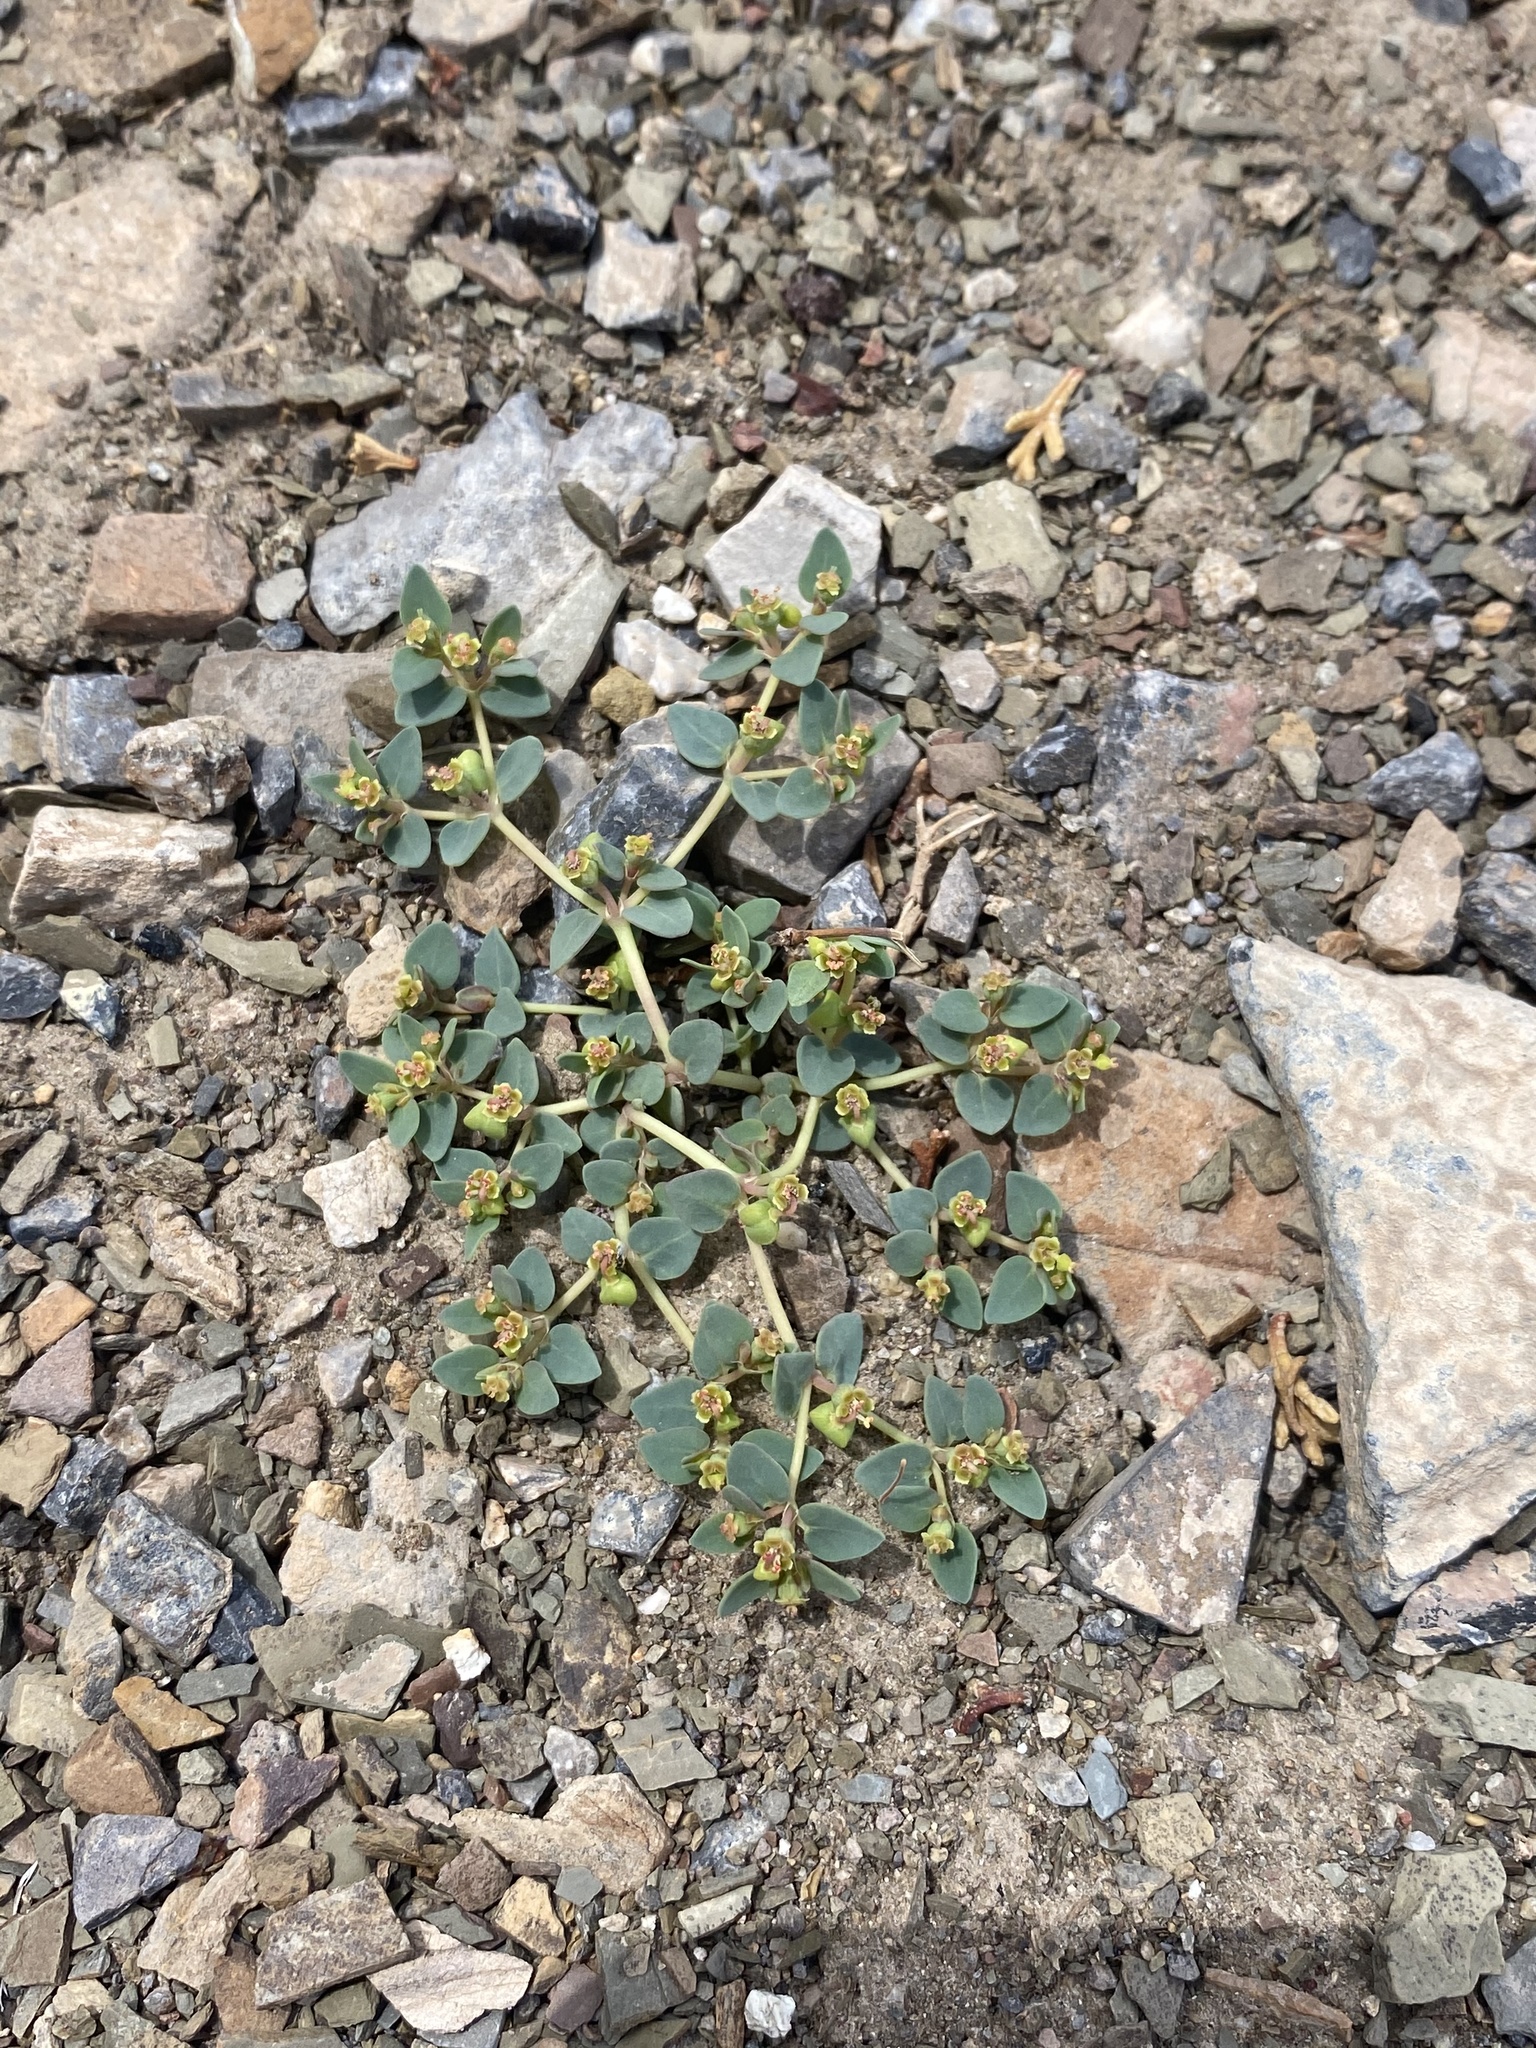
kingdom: Plantae
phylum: Tracheophyta
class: Magnoliopsida
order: Malpighiales
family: Euphorbiaceae
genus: Euphorbia
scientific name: Euphorbia fendleri
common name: Fendler's euphorbia
